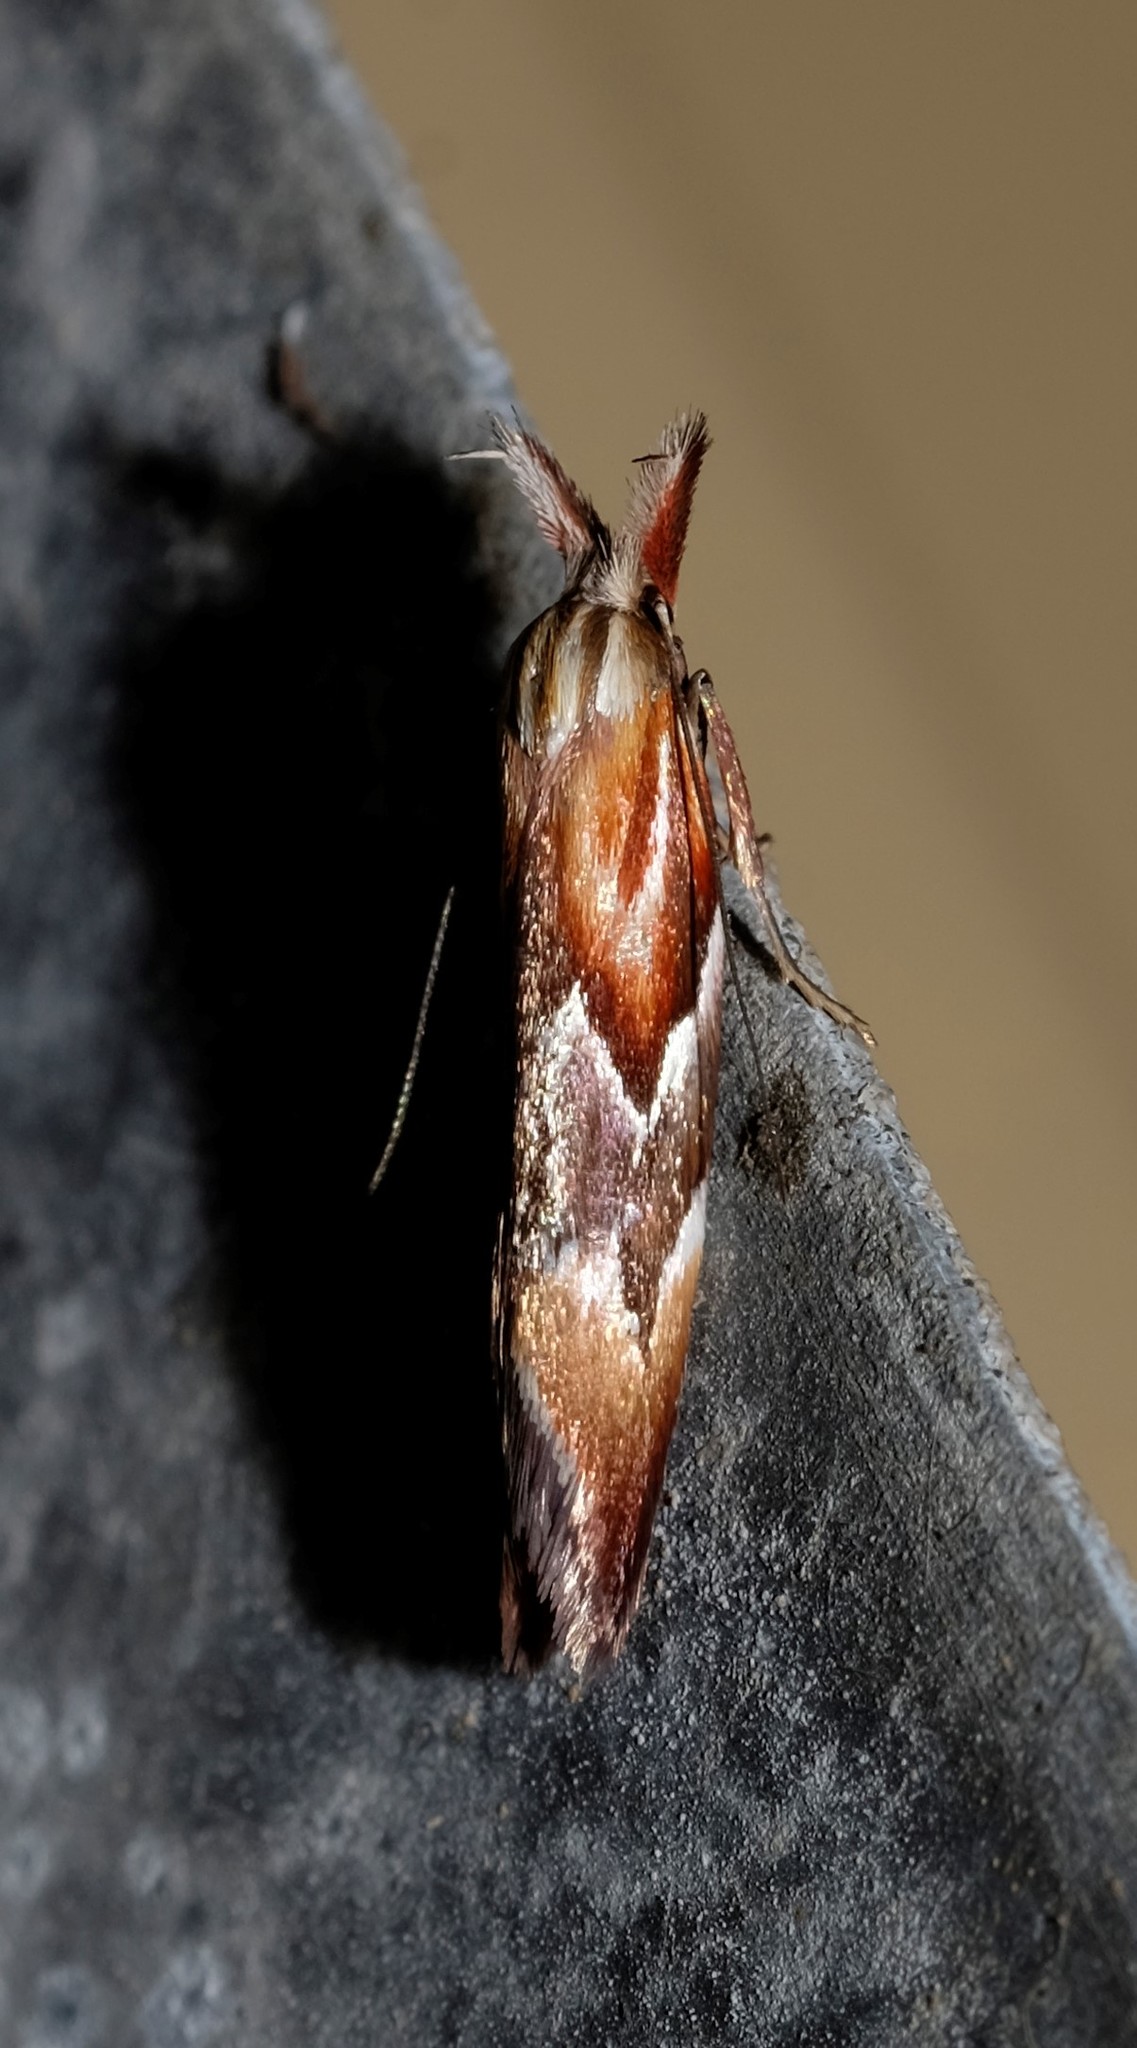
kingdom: Animalia
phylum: Arthropoda
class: Insecta
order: Lepidoptera
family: Oecophoridae
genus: Deigmoesta
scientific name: Deigmoesta lithocosma
